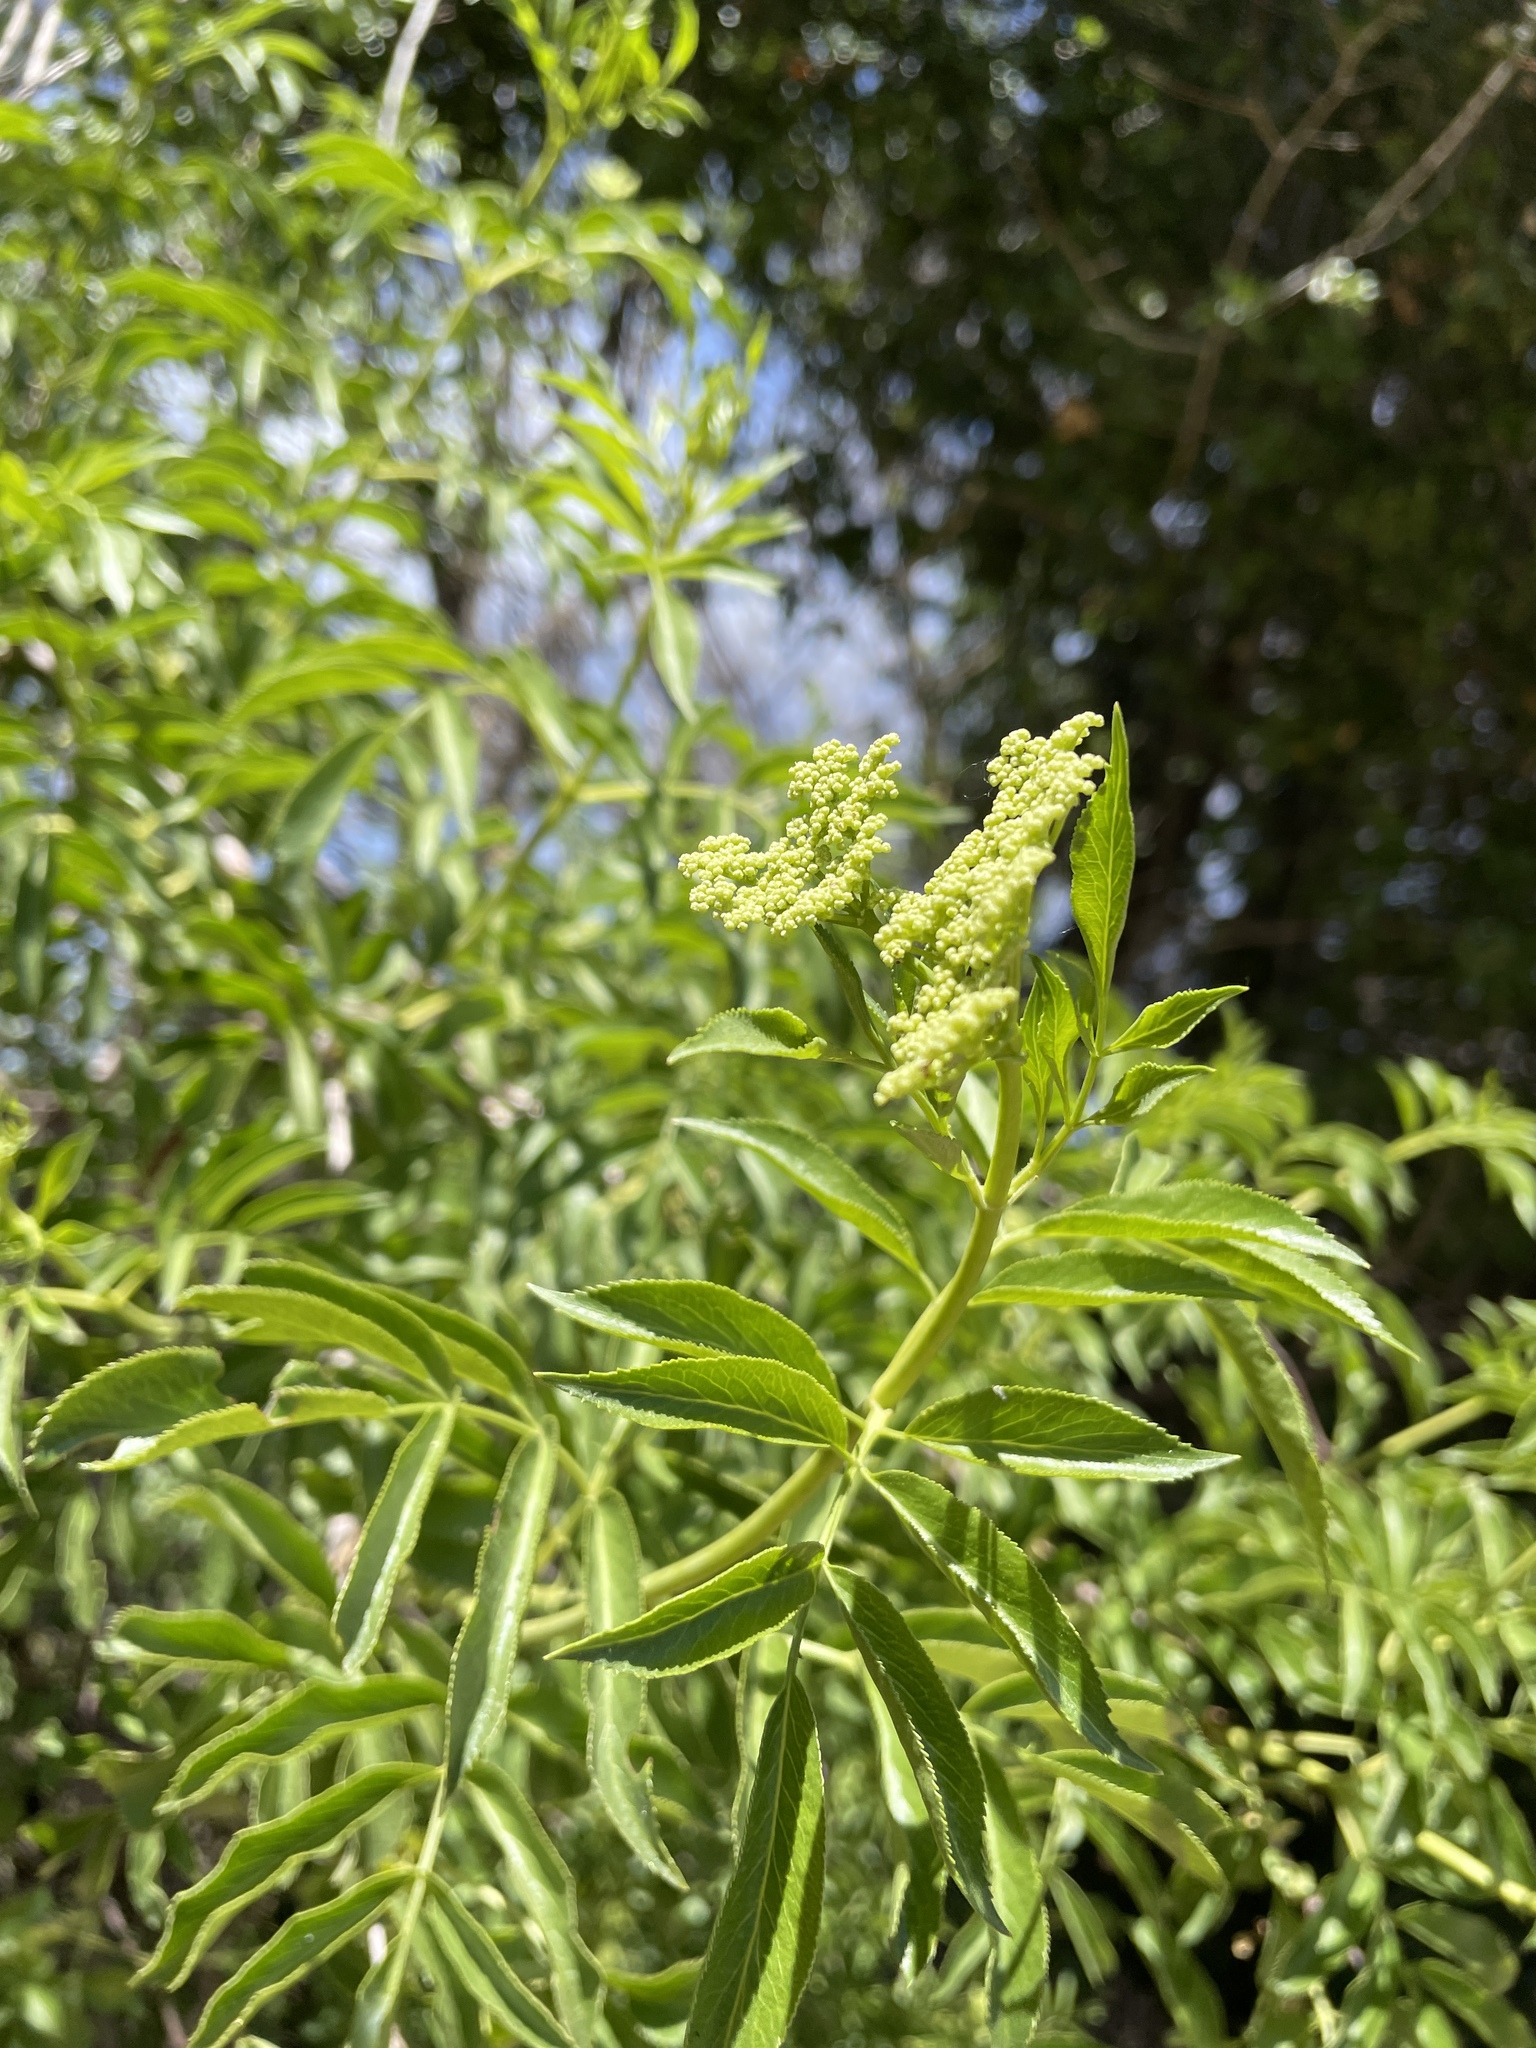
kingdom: Plantae
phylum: Tracheophyta
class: Magnoliopsida
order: Dipsacales
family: Viburnaceae
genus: Sambucus
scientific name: Sambucus cerulea
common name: Blue elder
